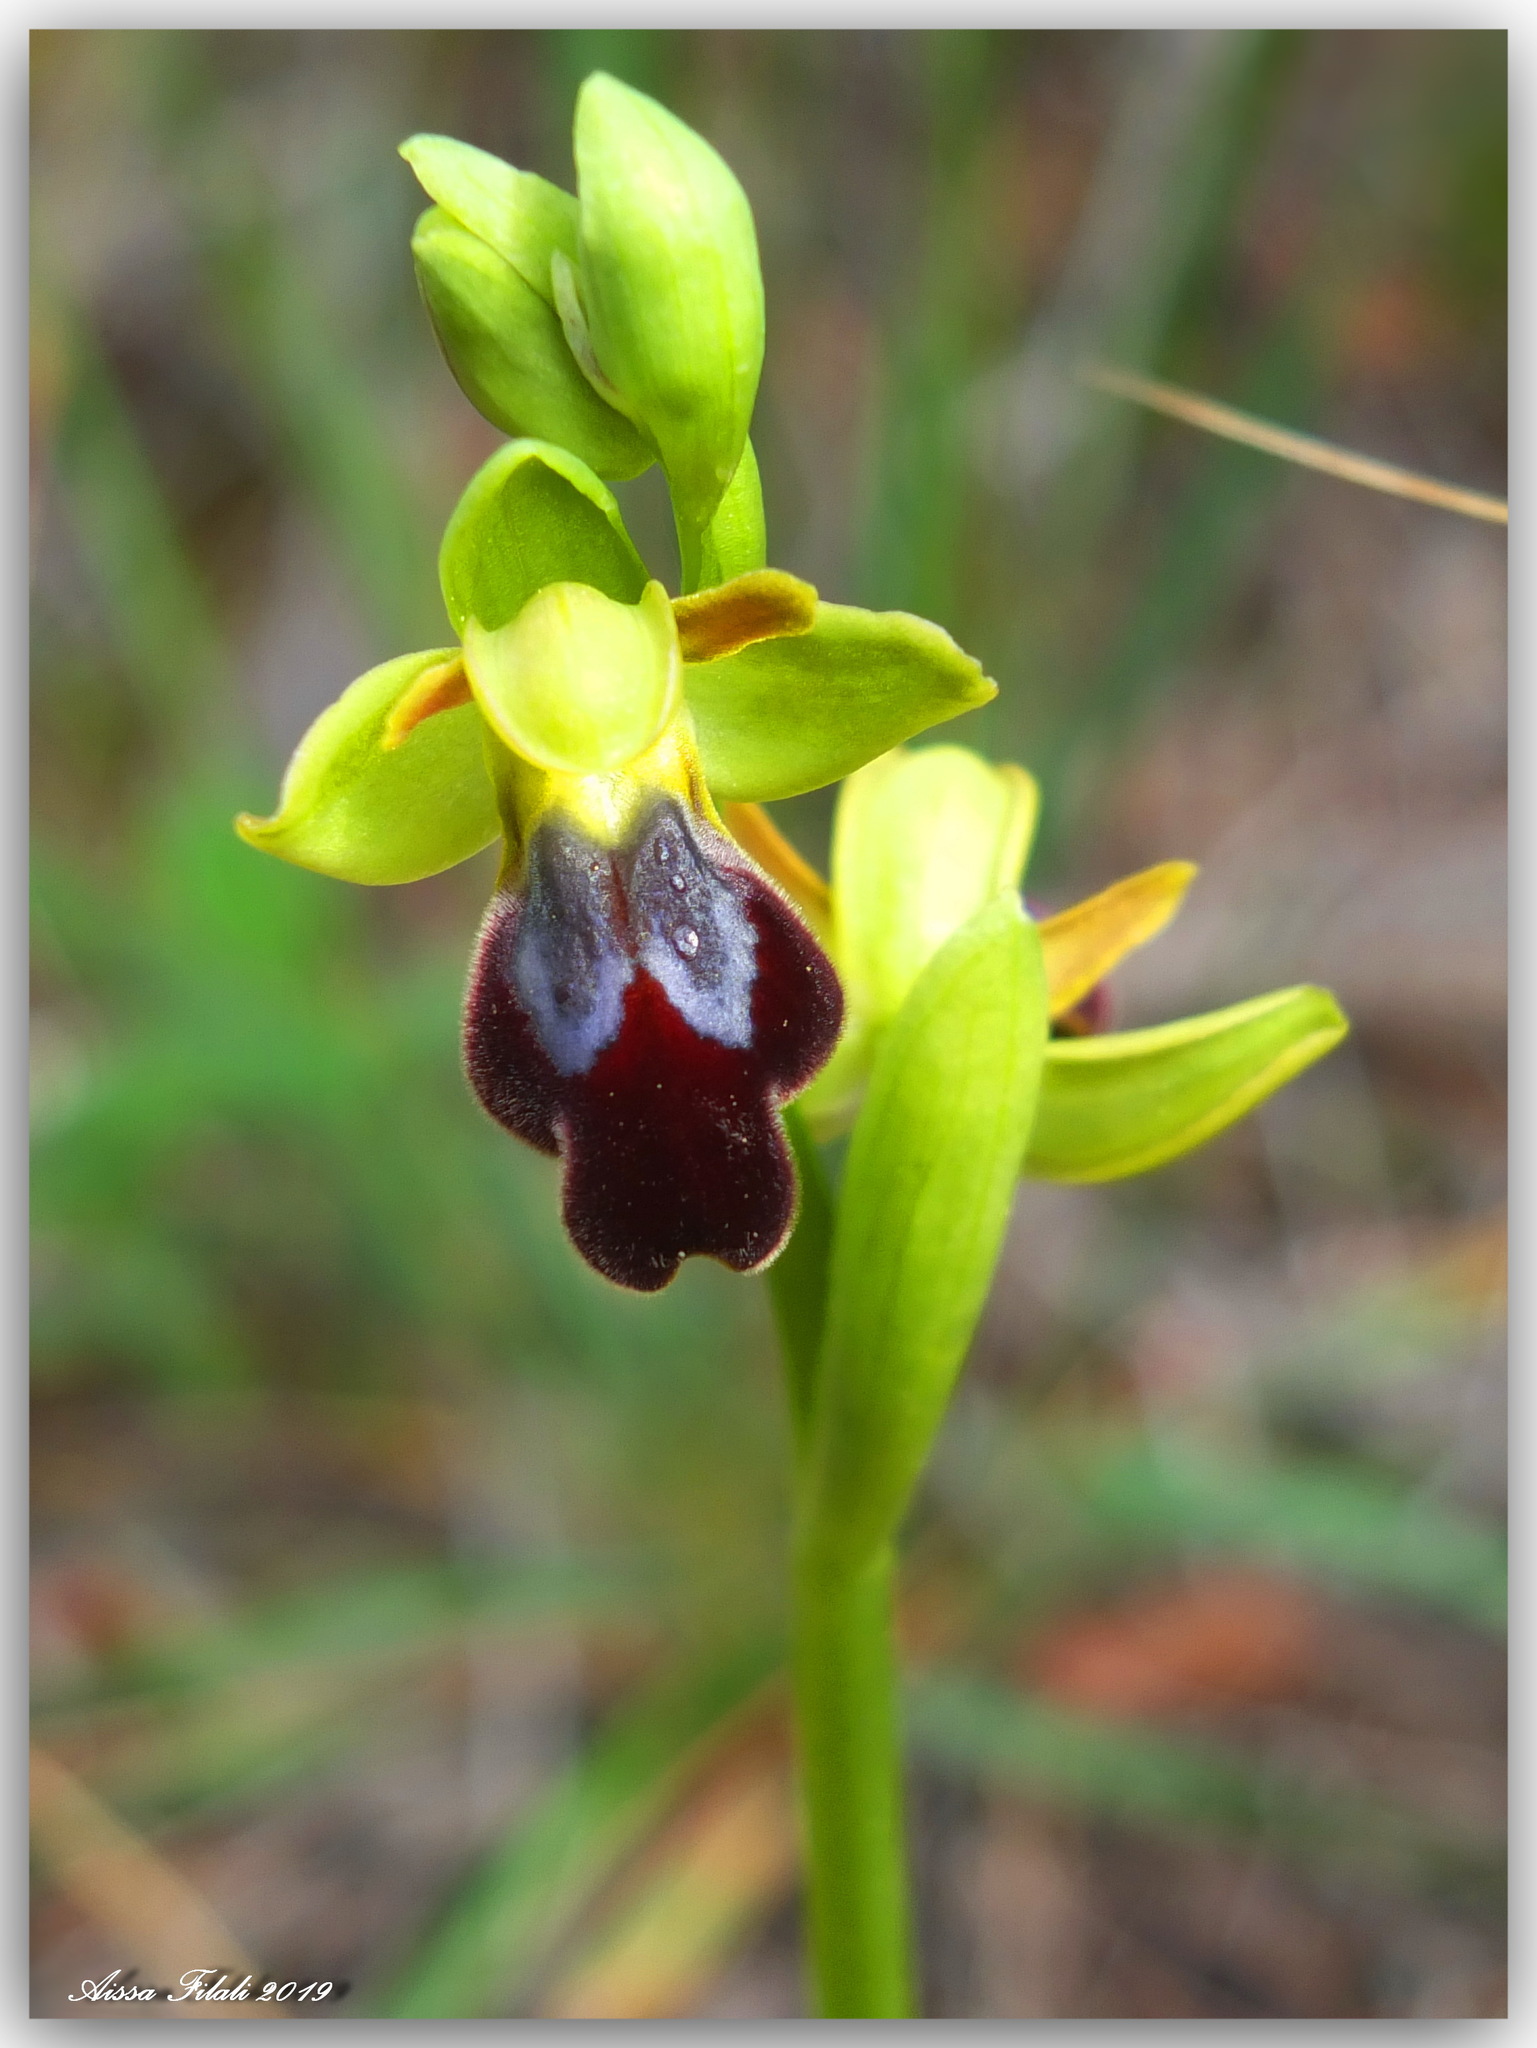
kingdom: Plantae
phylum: Tracheophyta
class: Liliopsida
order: Asparagales
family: Orchidaceae
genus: Ophrys
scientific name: Ophrys fusca
